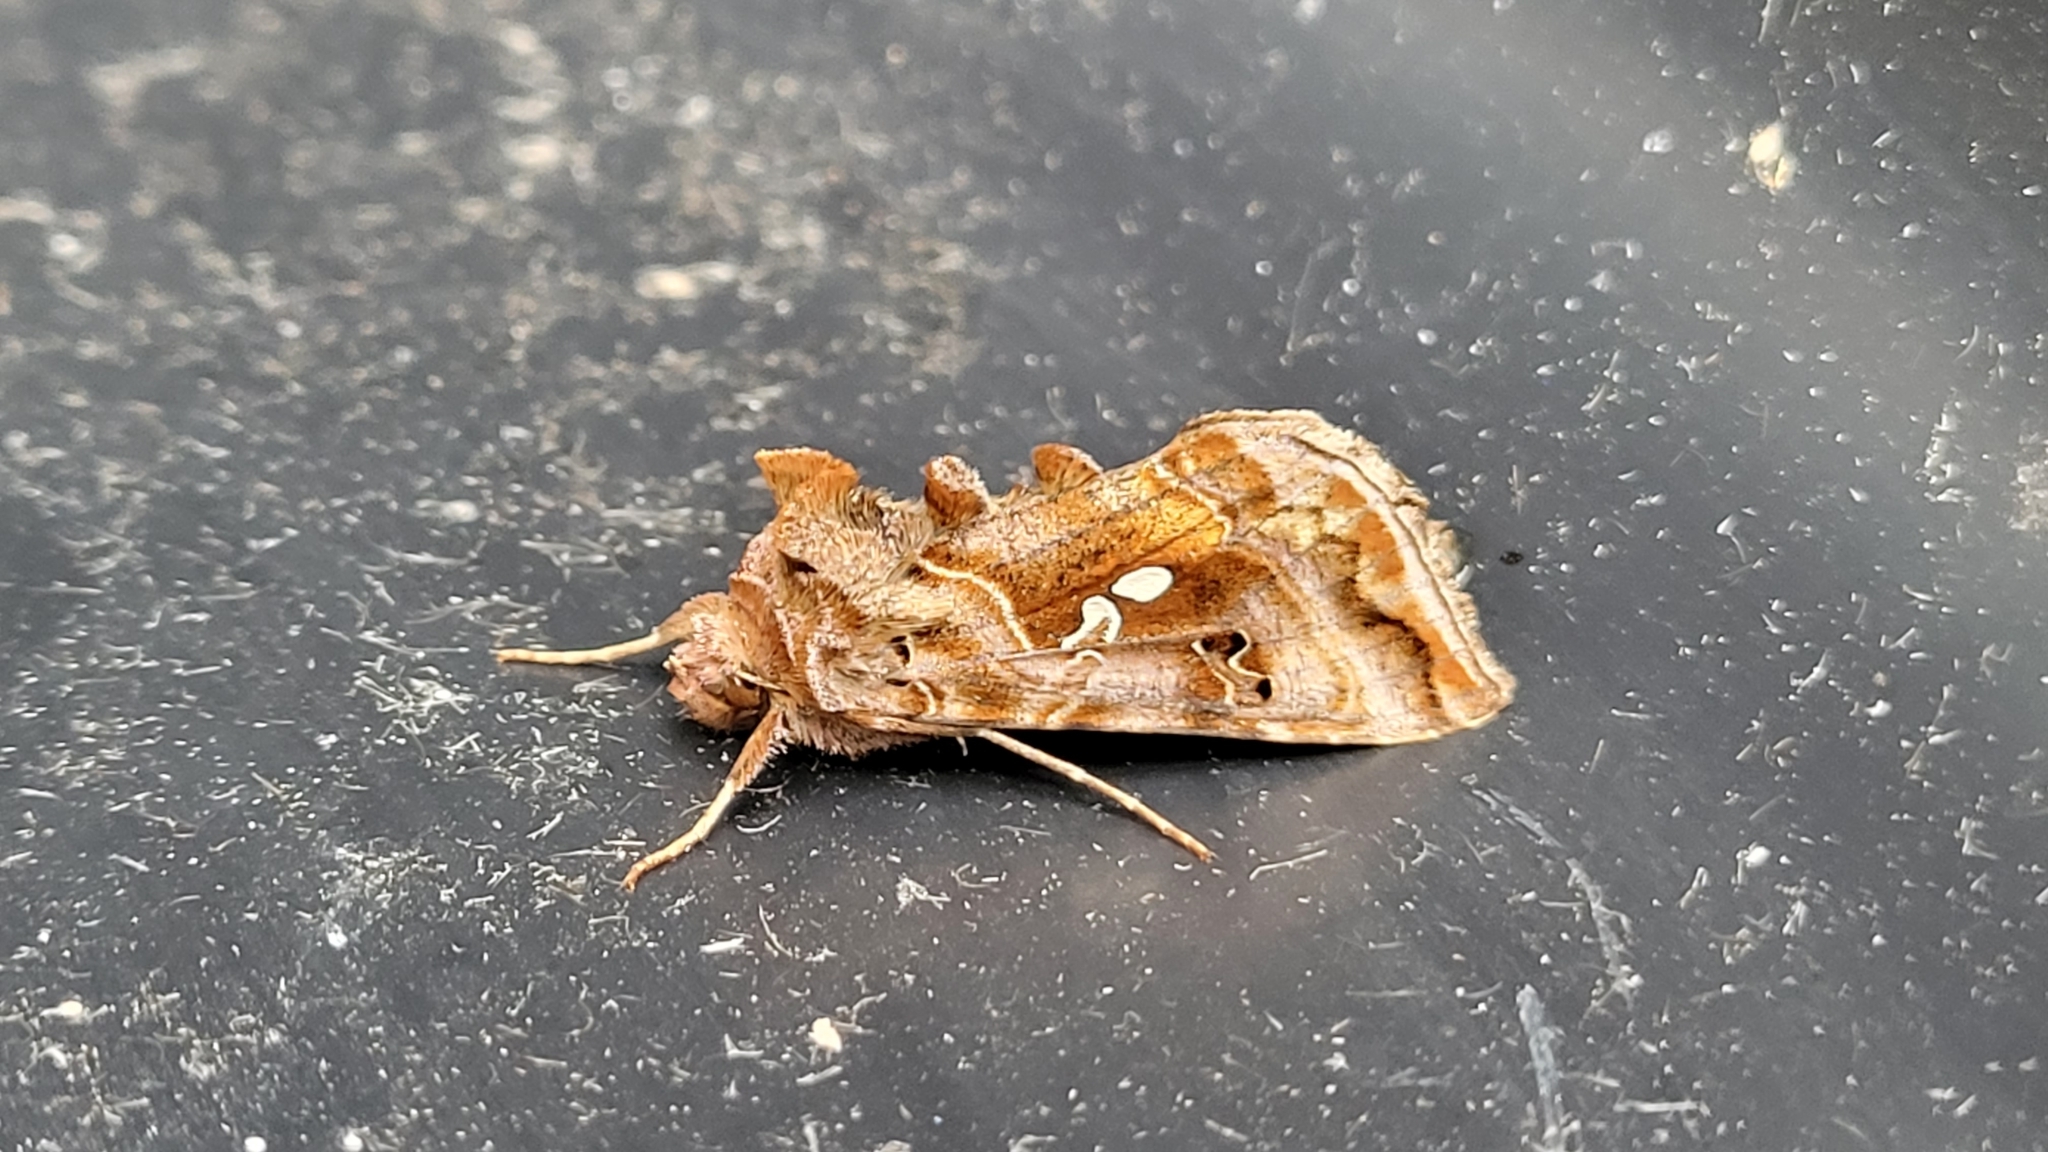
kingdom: Animalia
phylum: Arthropoda
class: Insecta
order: Lepidoptera
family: Noctuidae
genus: Autographa
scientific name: Autographa pulchrina
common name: Beautiful golden y
